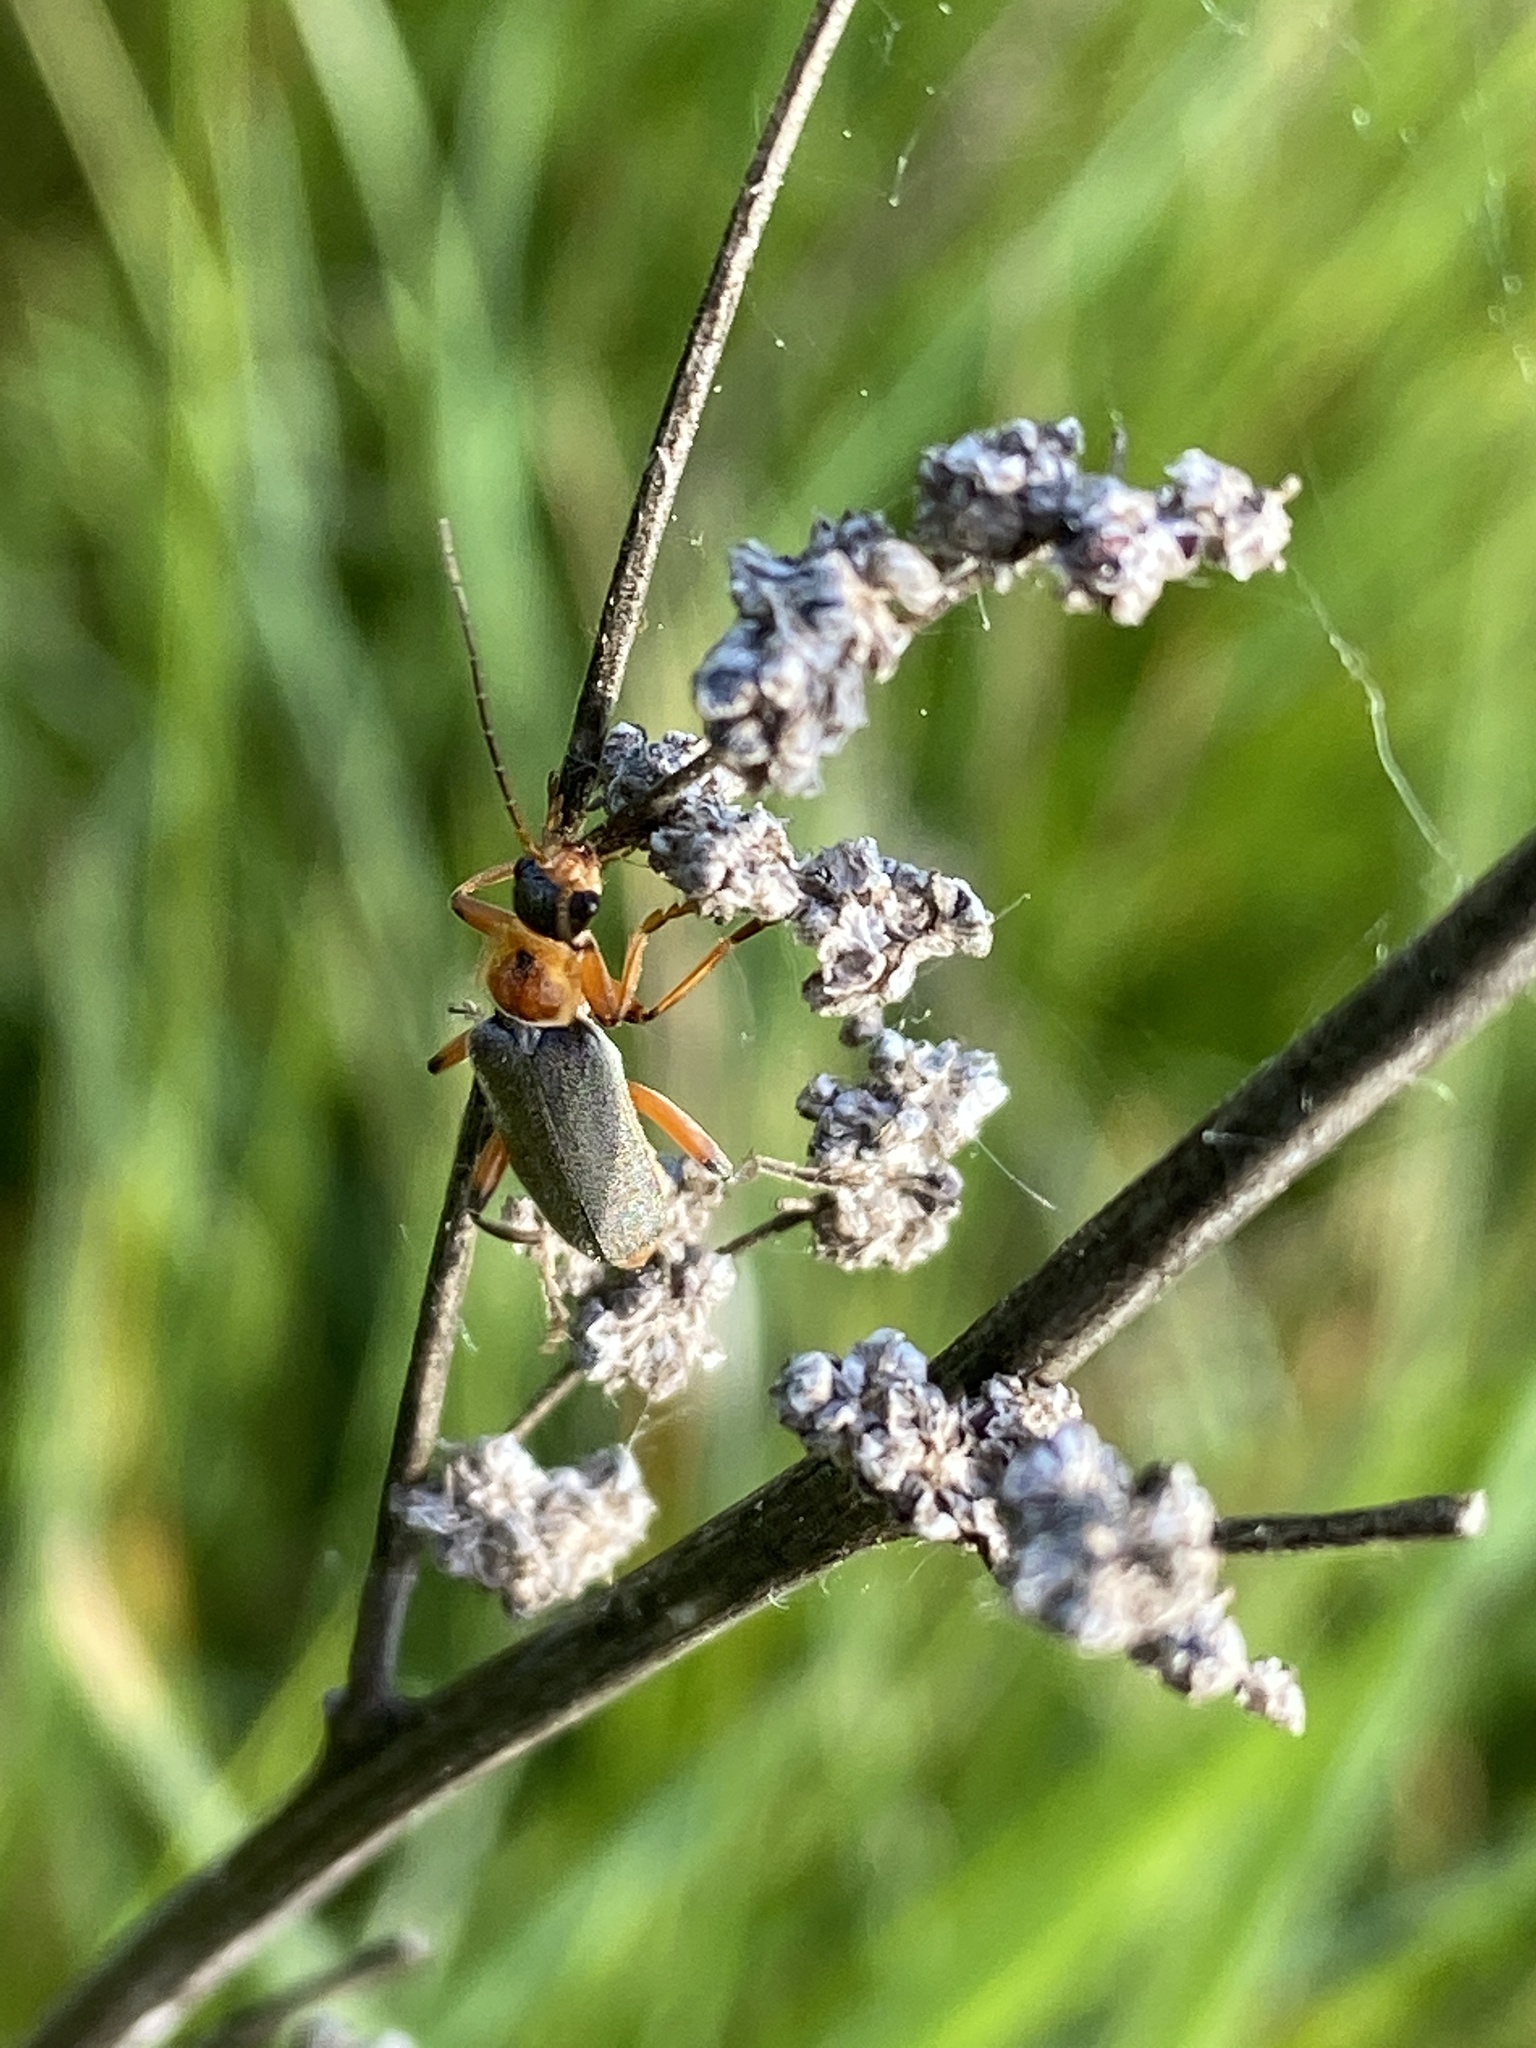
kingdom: Animalia
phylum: Arthropoda
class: Insecta
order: Coleoptera
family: Cantharidae
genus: Cantharis
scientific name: Cantharis nigricans
